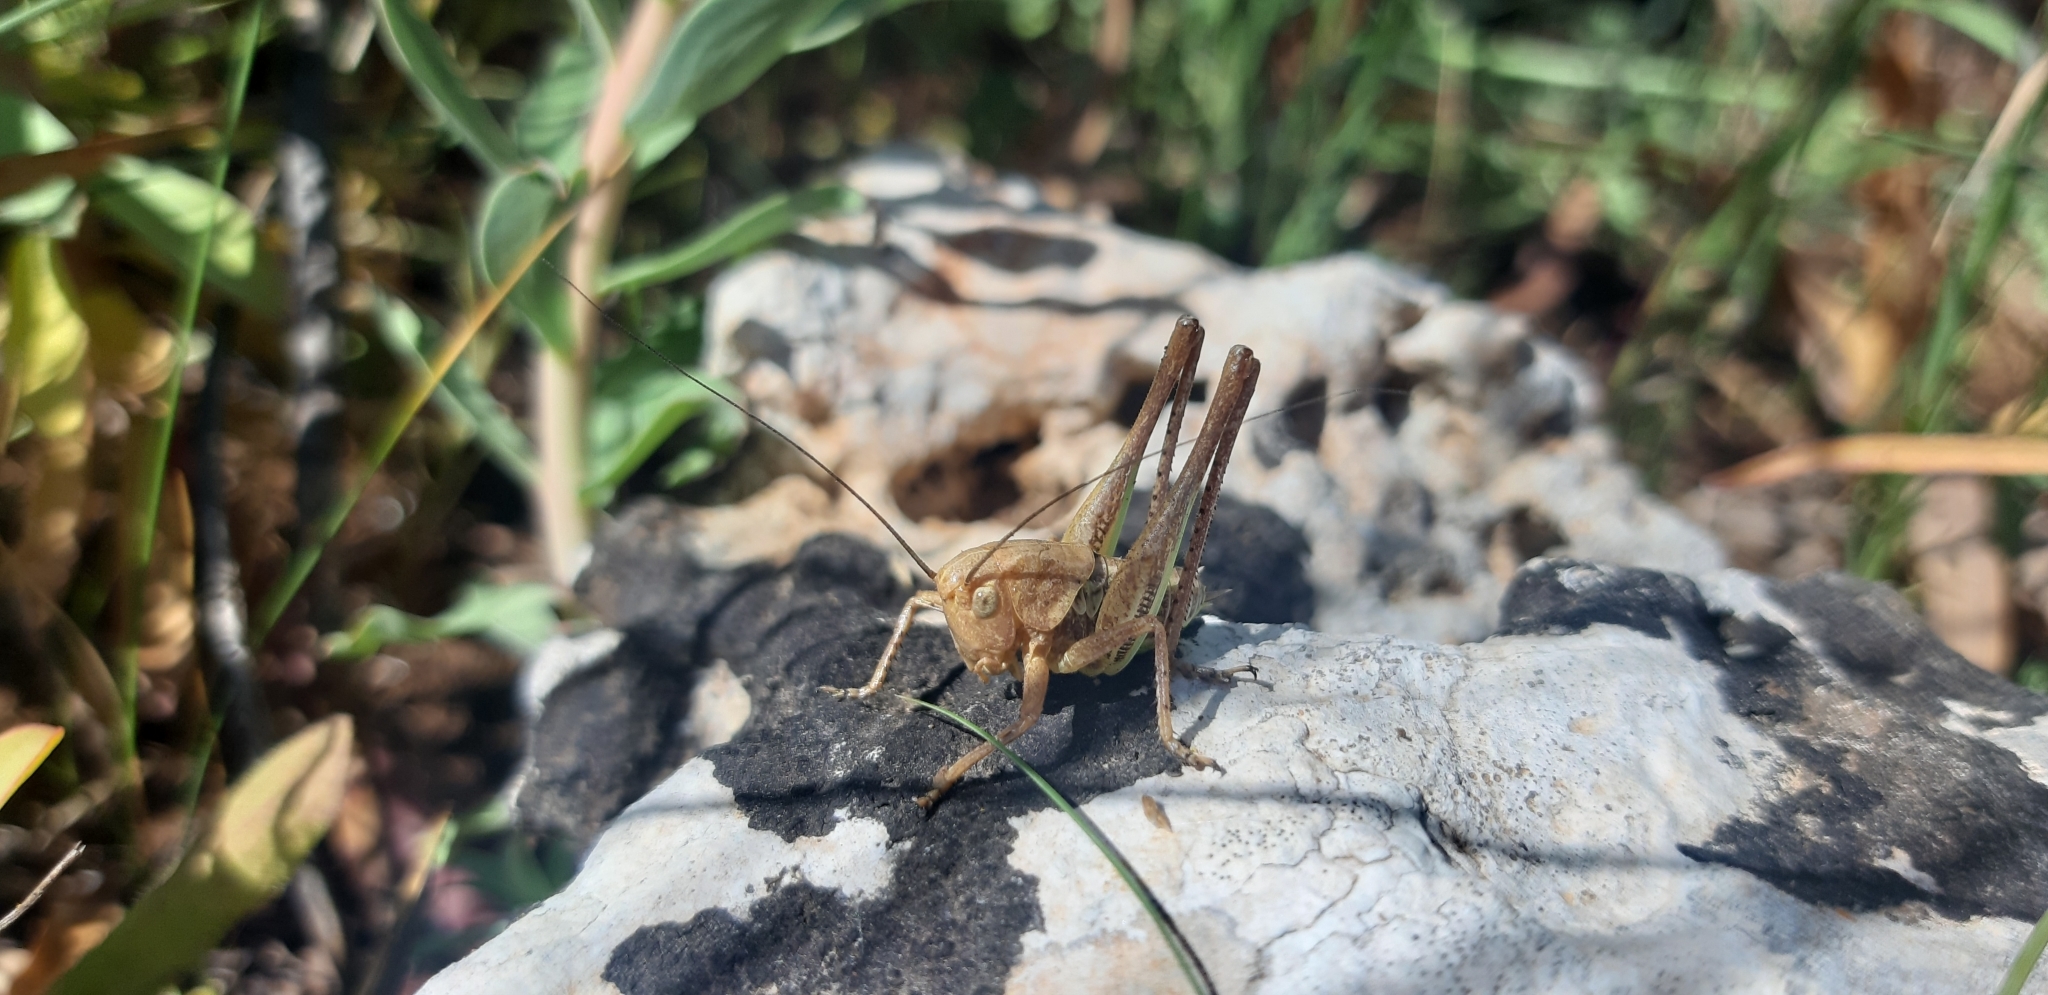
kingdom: Animalia
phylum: Arthropoda
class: Insecta
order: Orthoptera
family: Tettigoniidae
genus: Decticus
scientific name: Decticus albifrons
